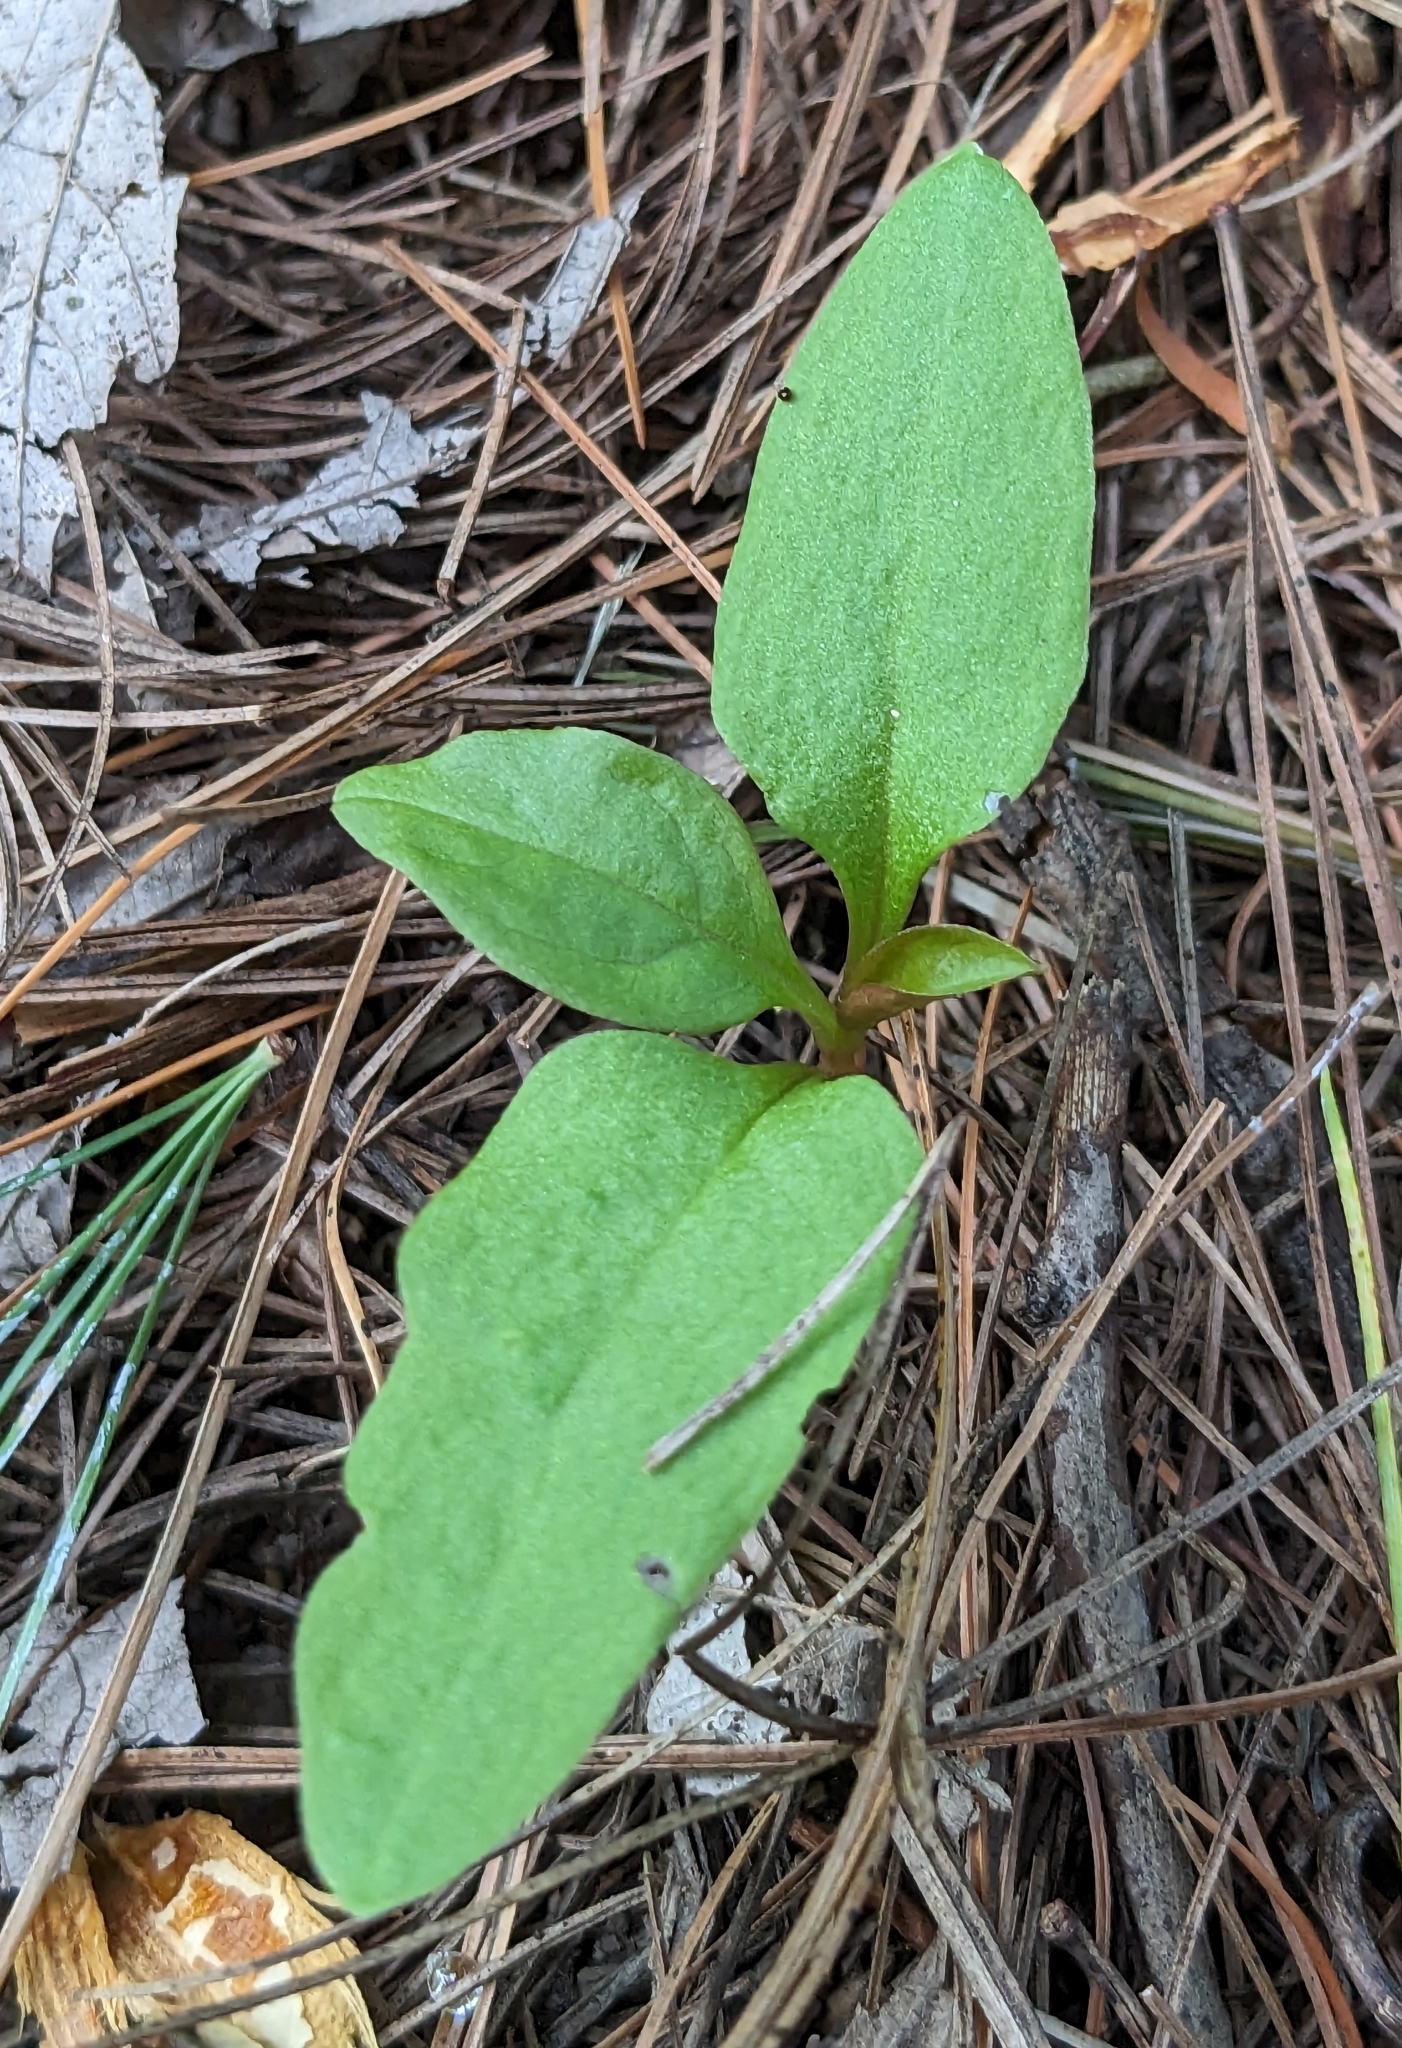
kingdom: Plantae
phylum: Tracheophyta
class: Magnoliopsida
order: Caryophyllales
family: Phytolaccaceae
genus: Phytolacca
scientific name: Phytolacca americana
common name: American pokeweed
